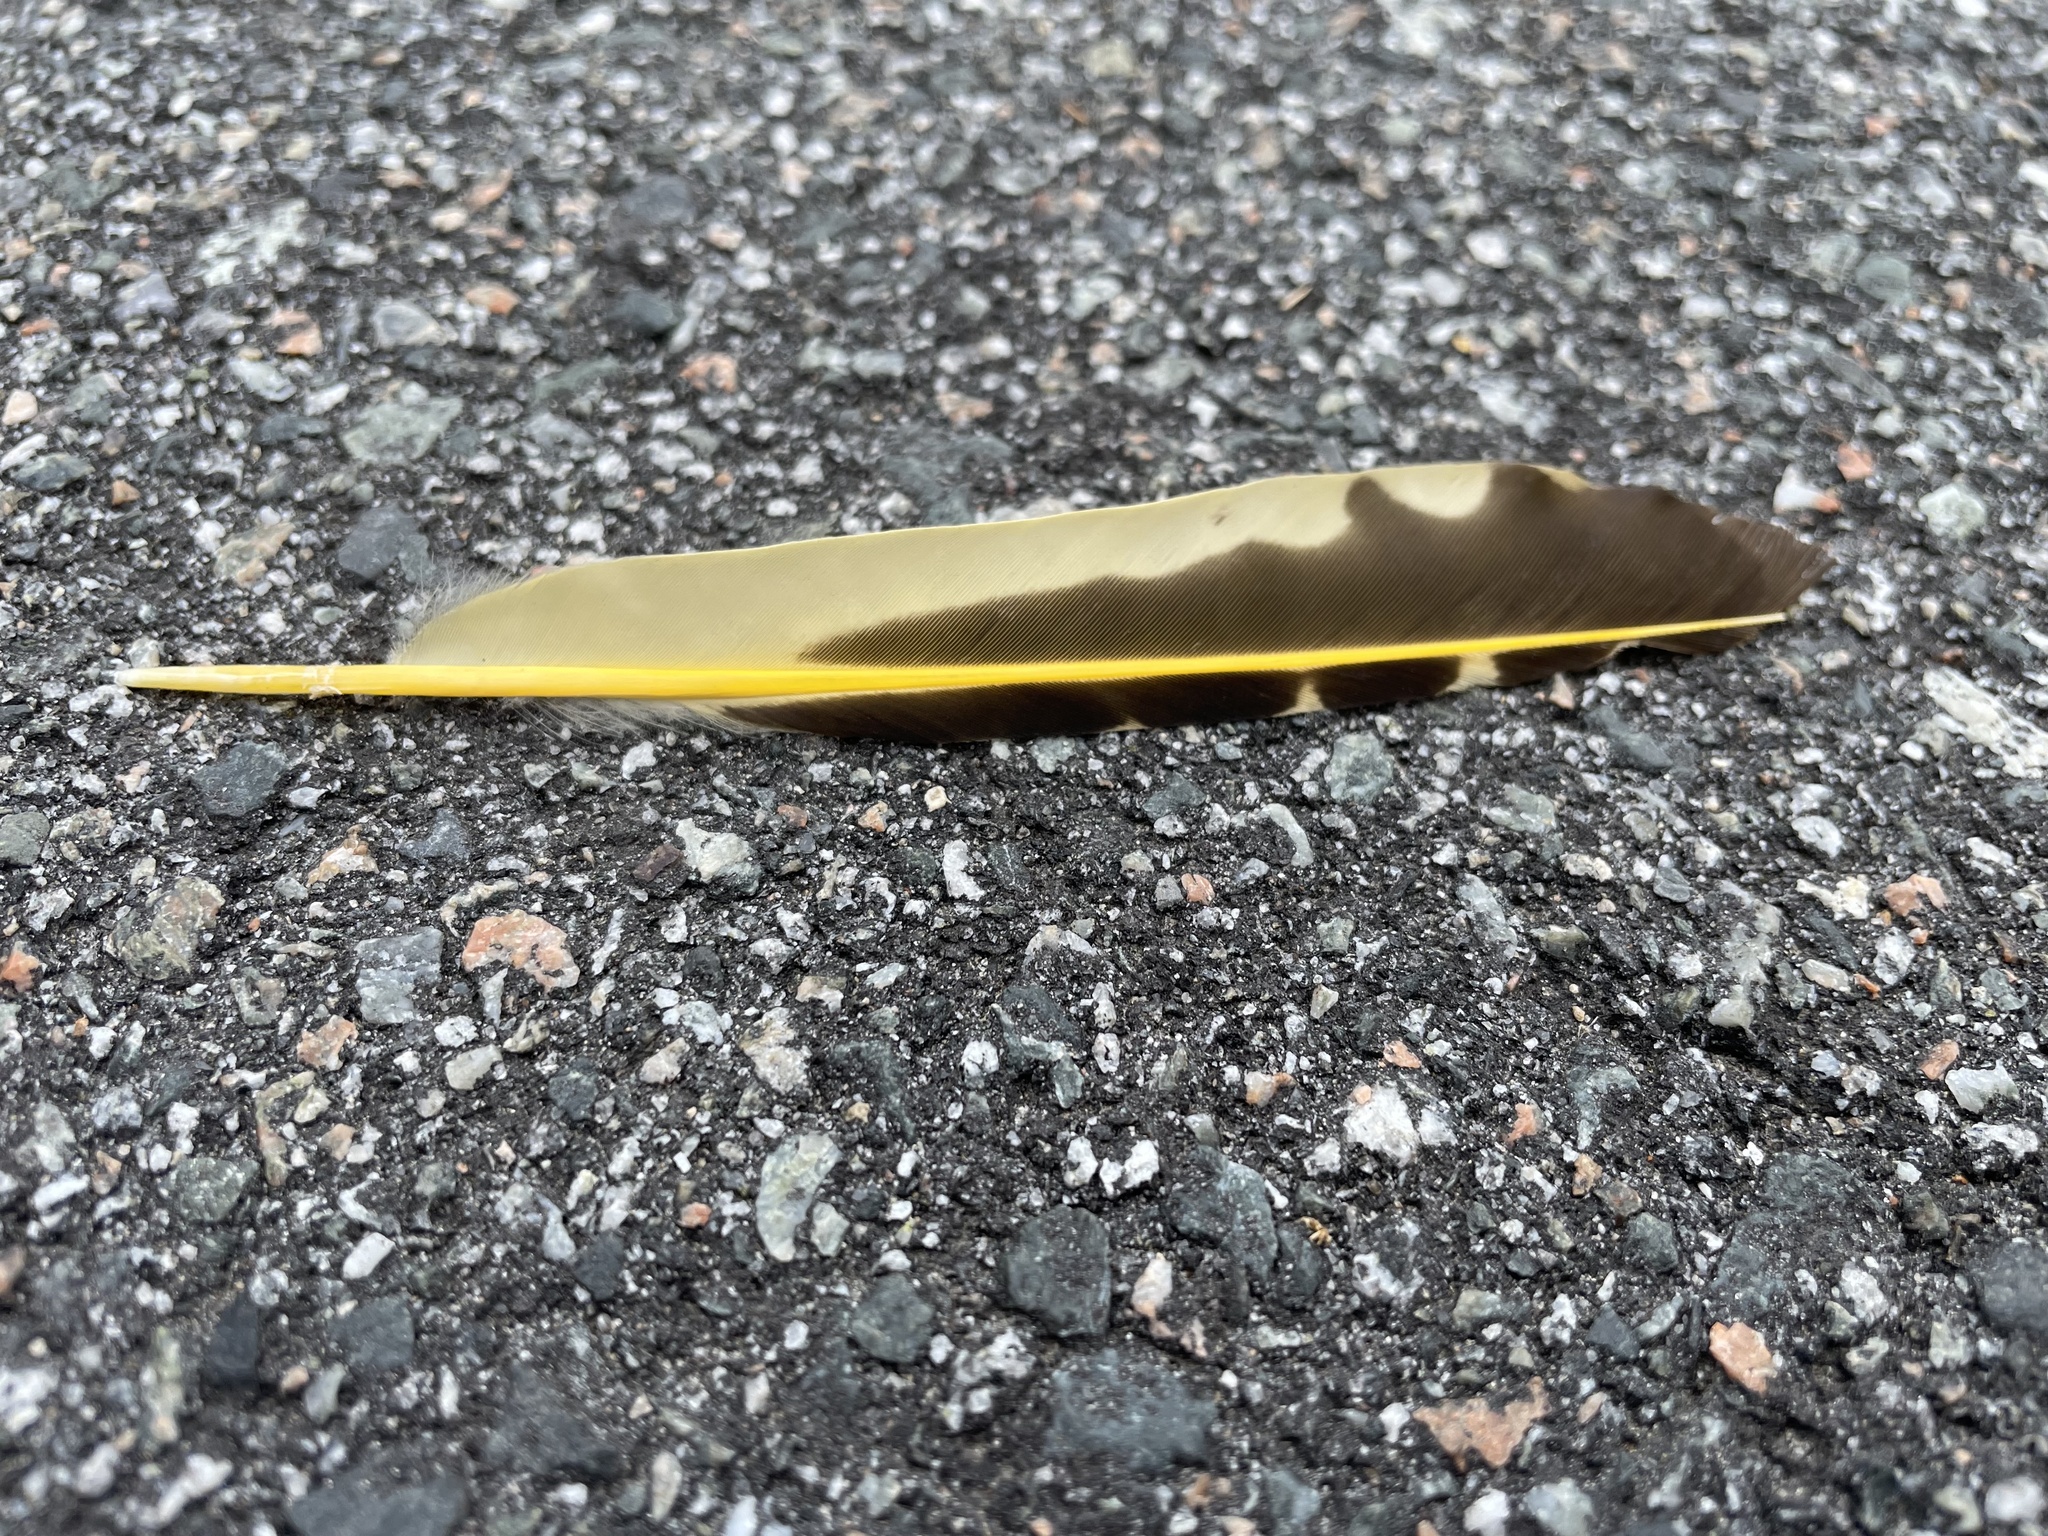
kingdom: Animalia
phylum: Chordata
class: Aves
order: Piciformes
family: Picidae
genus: Colaptes
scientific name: Colaptes auratus
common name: Northern flicker
